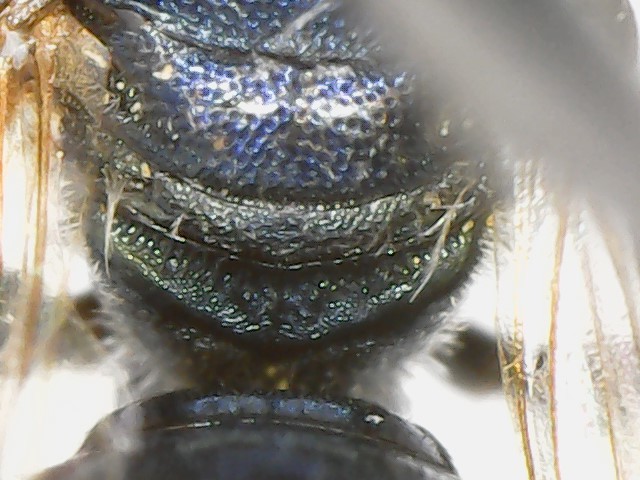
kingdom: Animalia
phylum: Arthropoda
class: Insecta
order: Hymenoptera
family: Apidae
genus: Ceratina
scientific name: Ceratina calcarata
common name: Spurred carpenter bee
